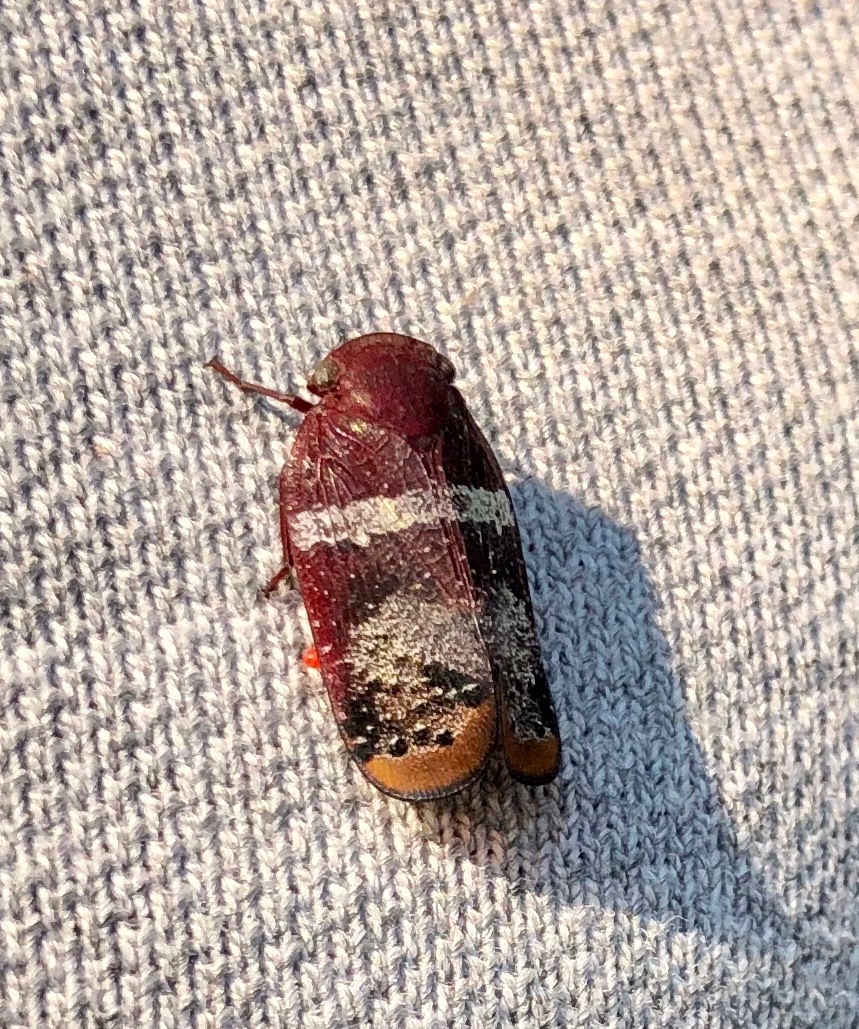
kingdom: Animalia
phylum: Arthropoda
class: Insecta
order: Hemiptera
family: Eurybrachidae
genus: Mesonitys
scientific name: Mesonitys taeniata
